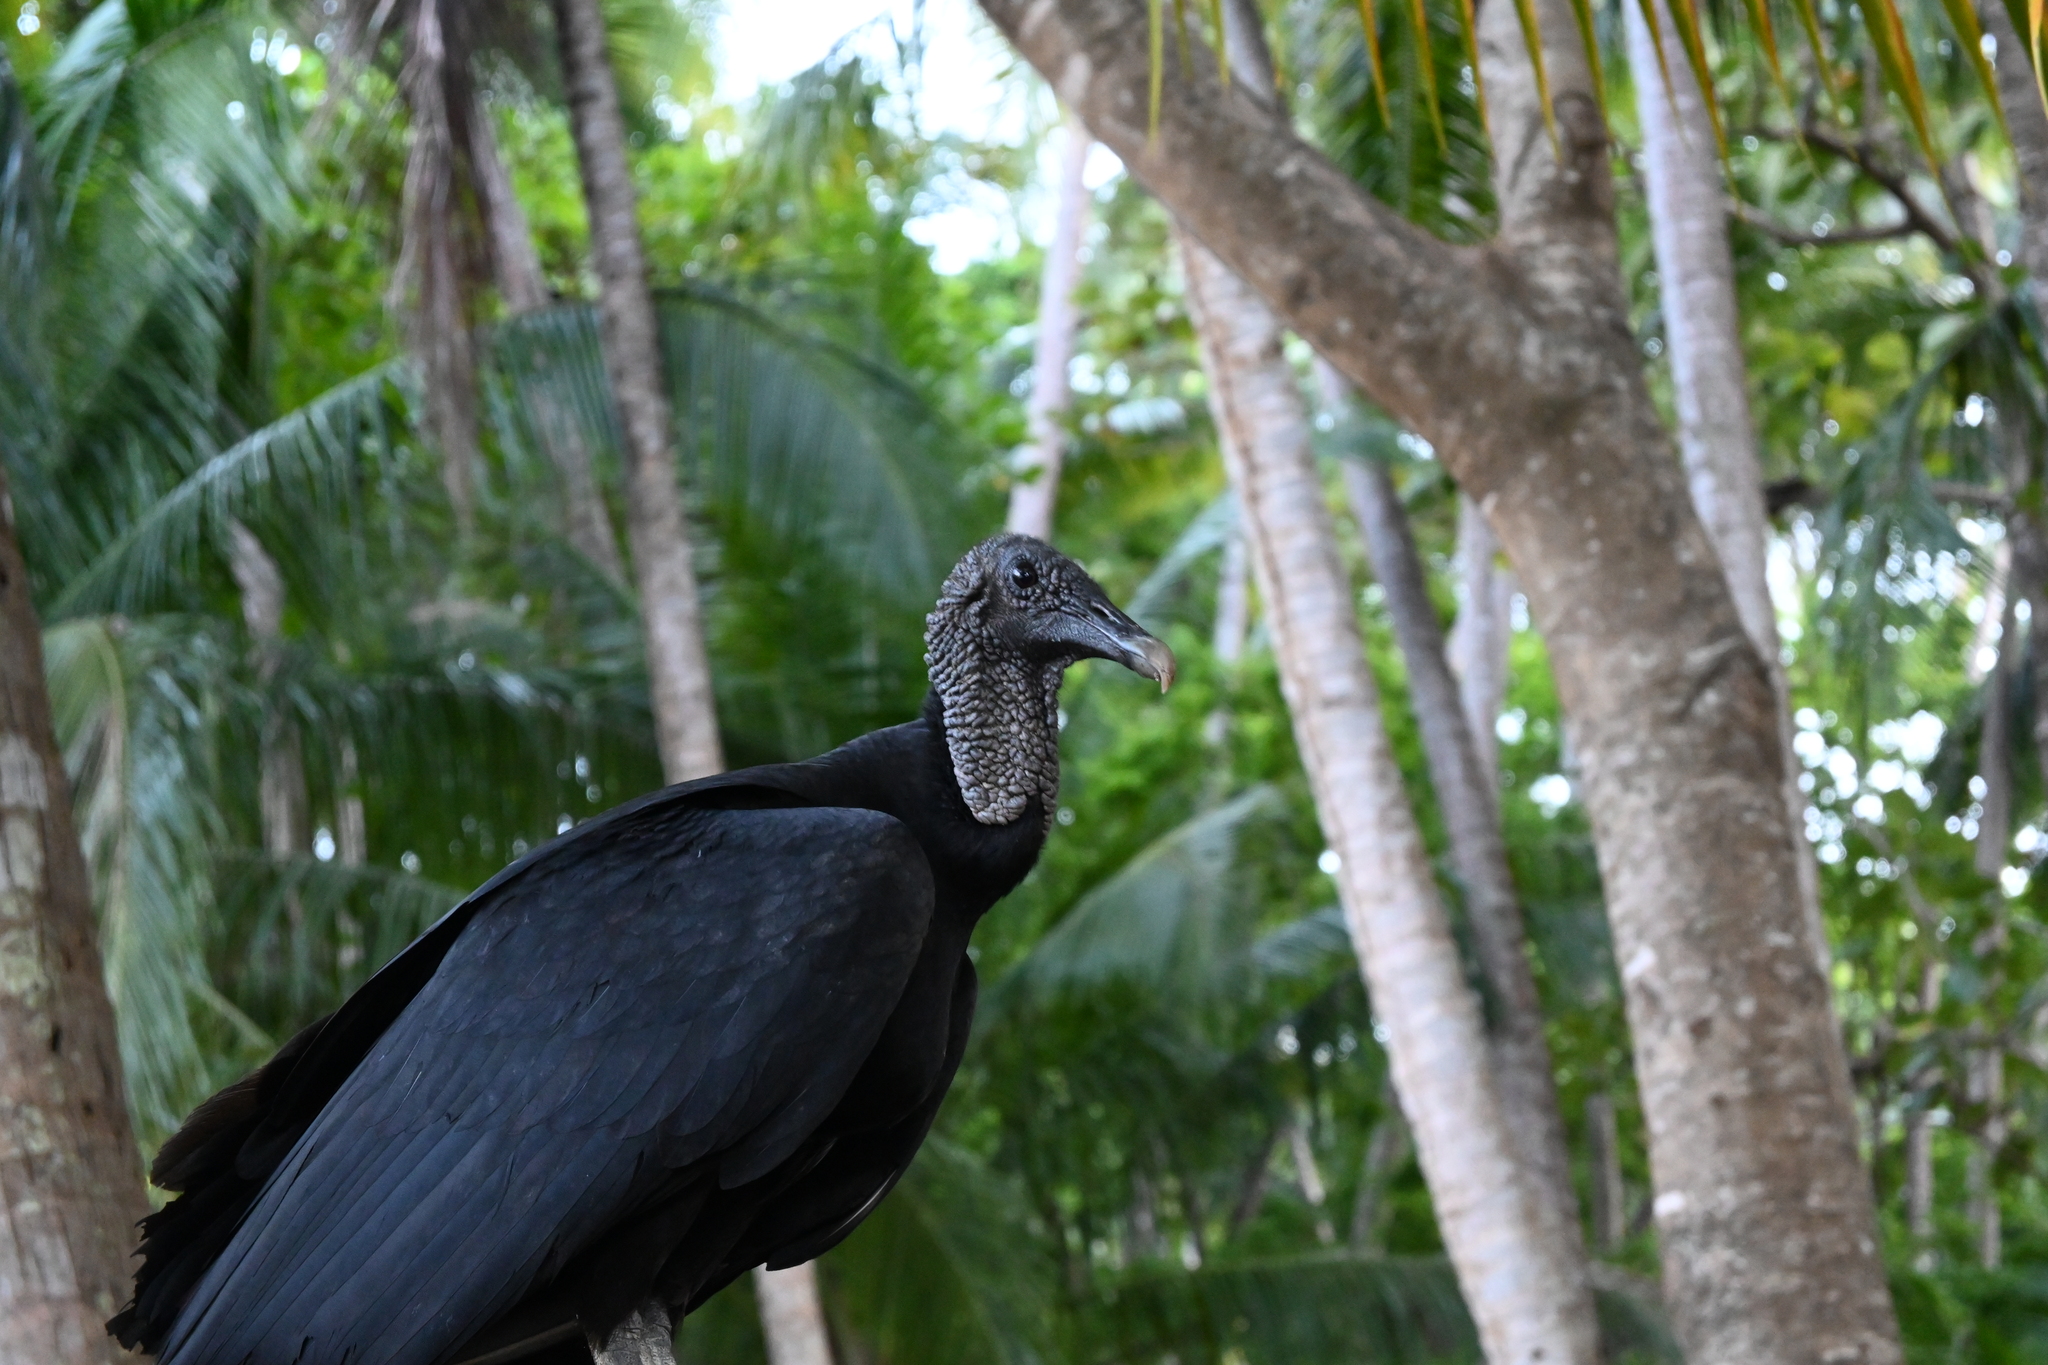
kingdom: Animalia
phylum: Chordata
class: Aves
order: Accipitriformes
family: Cathartidae
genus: Coragyps
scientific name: Coragyps atratus
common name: Black vulture
